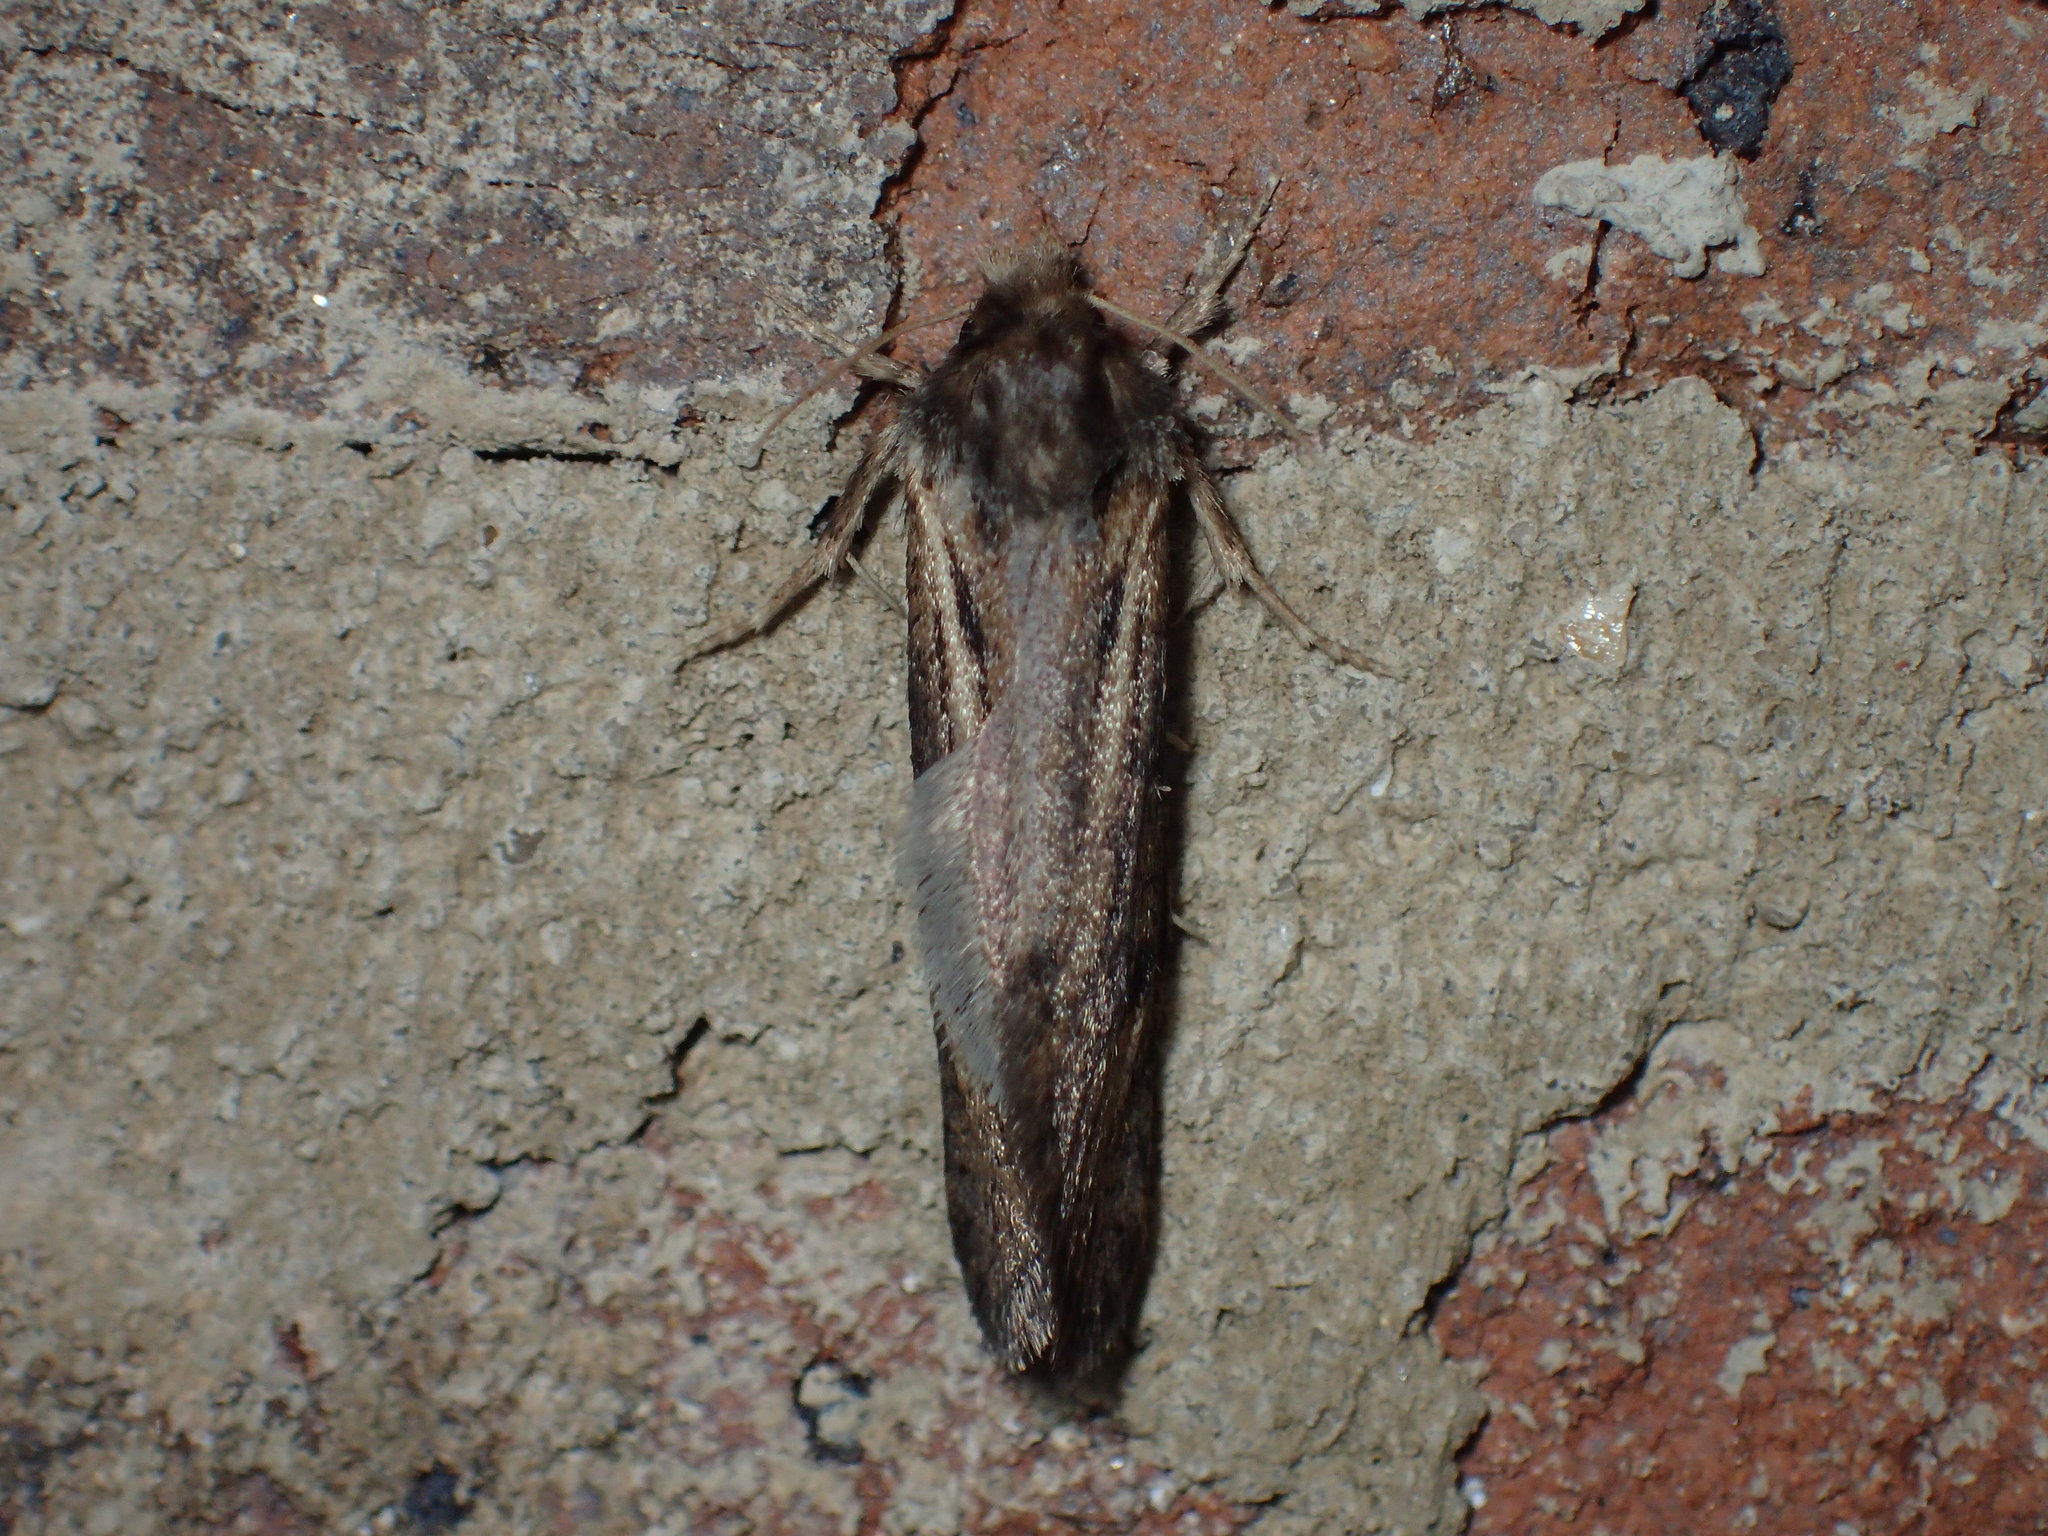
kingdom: Animalia
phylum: Arthropoda
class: Insecta
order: Lepidoptera
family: Tineidae
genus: Acrolophus
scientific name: Acrolophus popeanella
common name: Clemens' grass tubeworm moth
